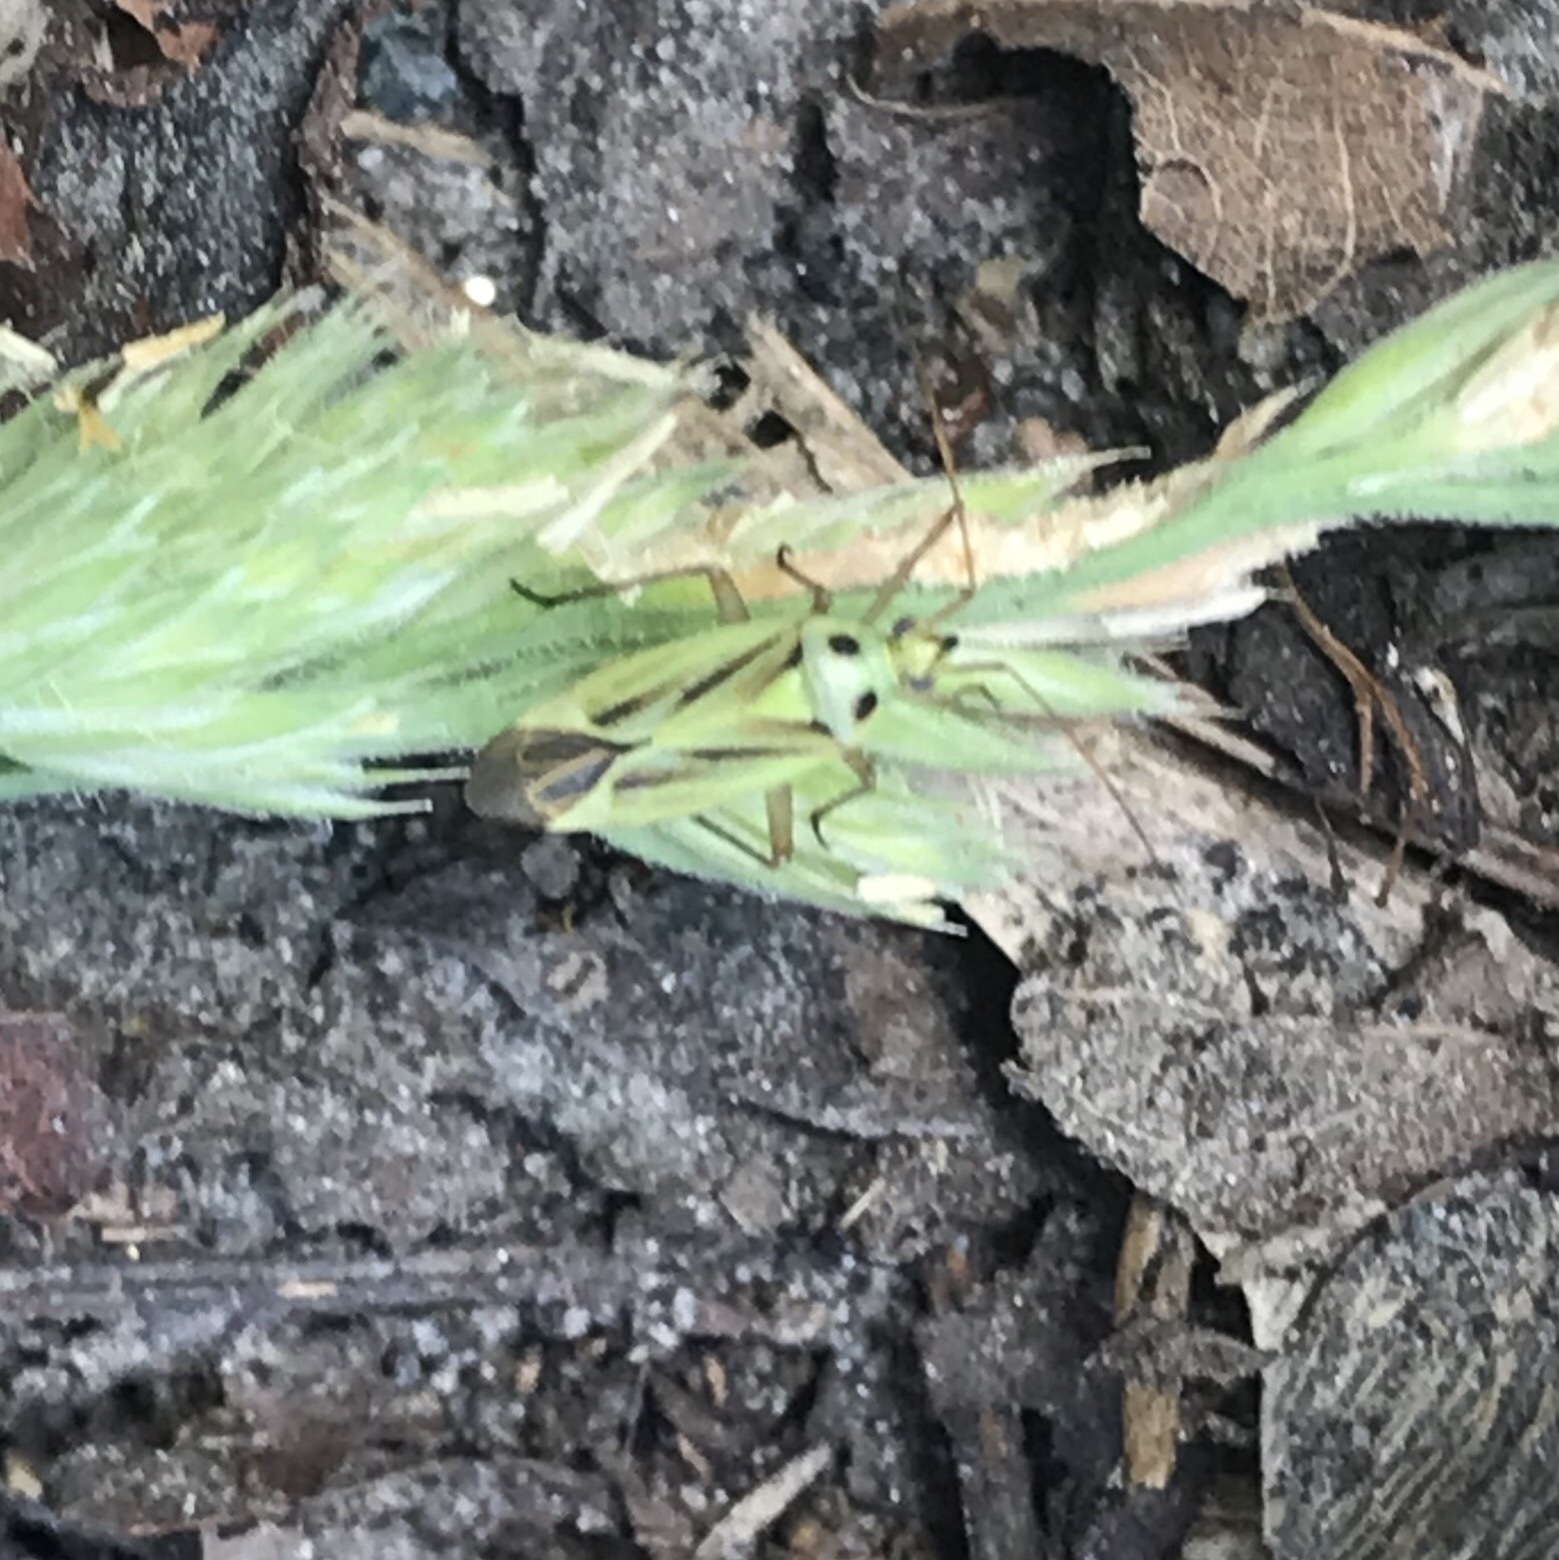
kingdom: Animalia
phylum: Arthropoda
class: Insecta
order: Hemiptera
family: Miridae
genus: Stenotus
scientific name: Stenotus binotatus
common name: Plant bug
